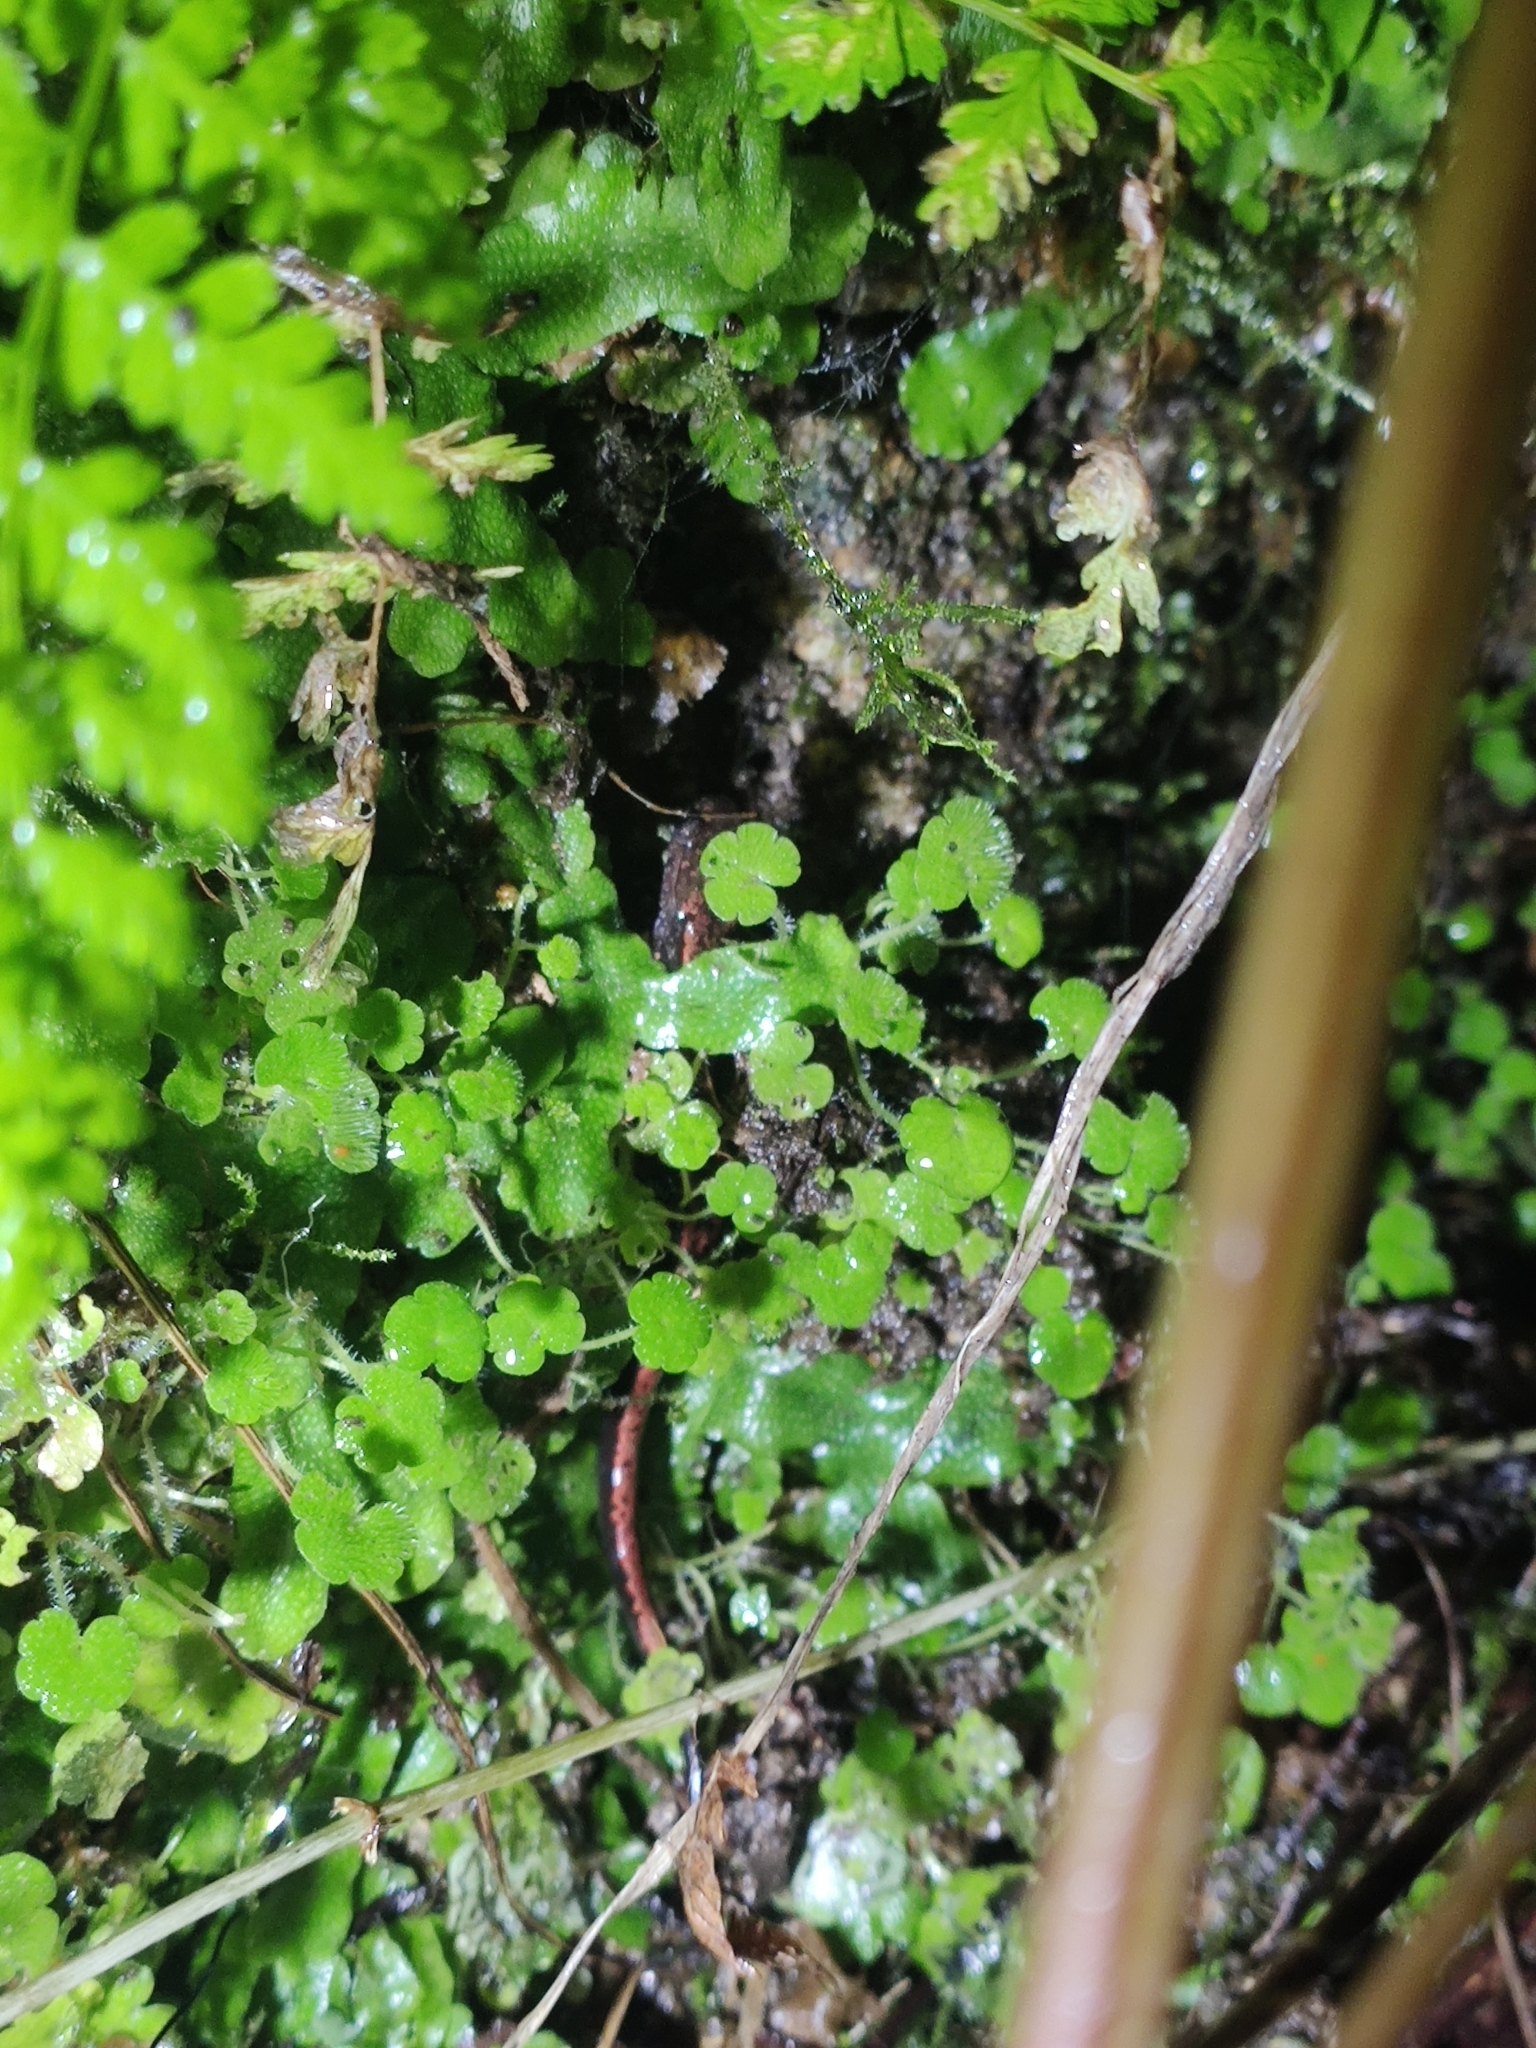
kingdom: Animalia
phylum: Chordata
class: Amphibia
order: Caudata
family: Salamandridae
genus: Chioglossa
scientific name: Chioglossa lusitanica
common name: Gold-striped salamander
